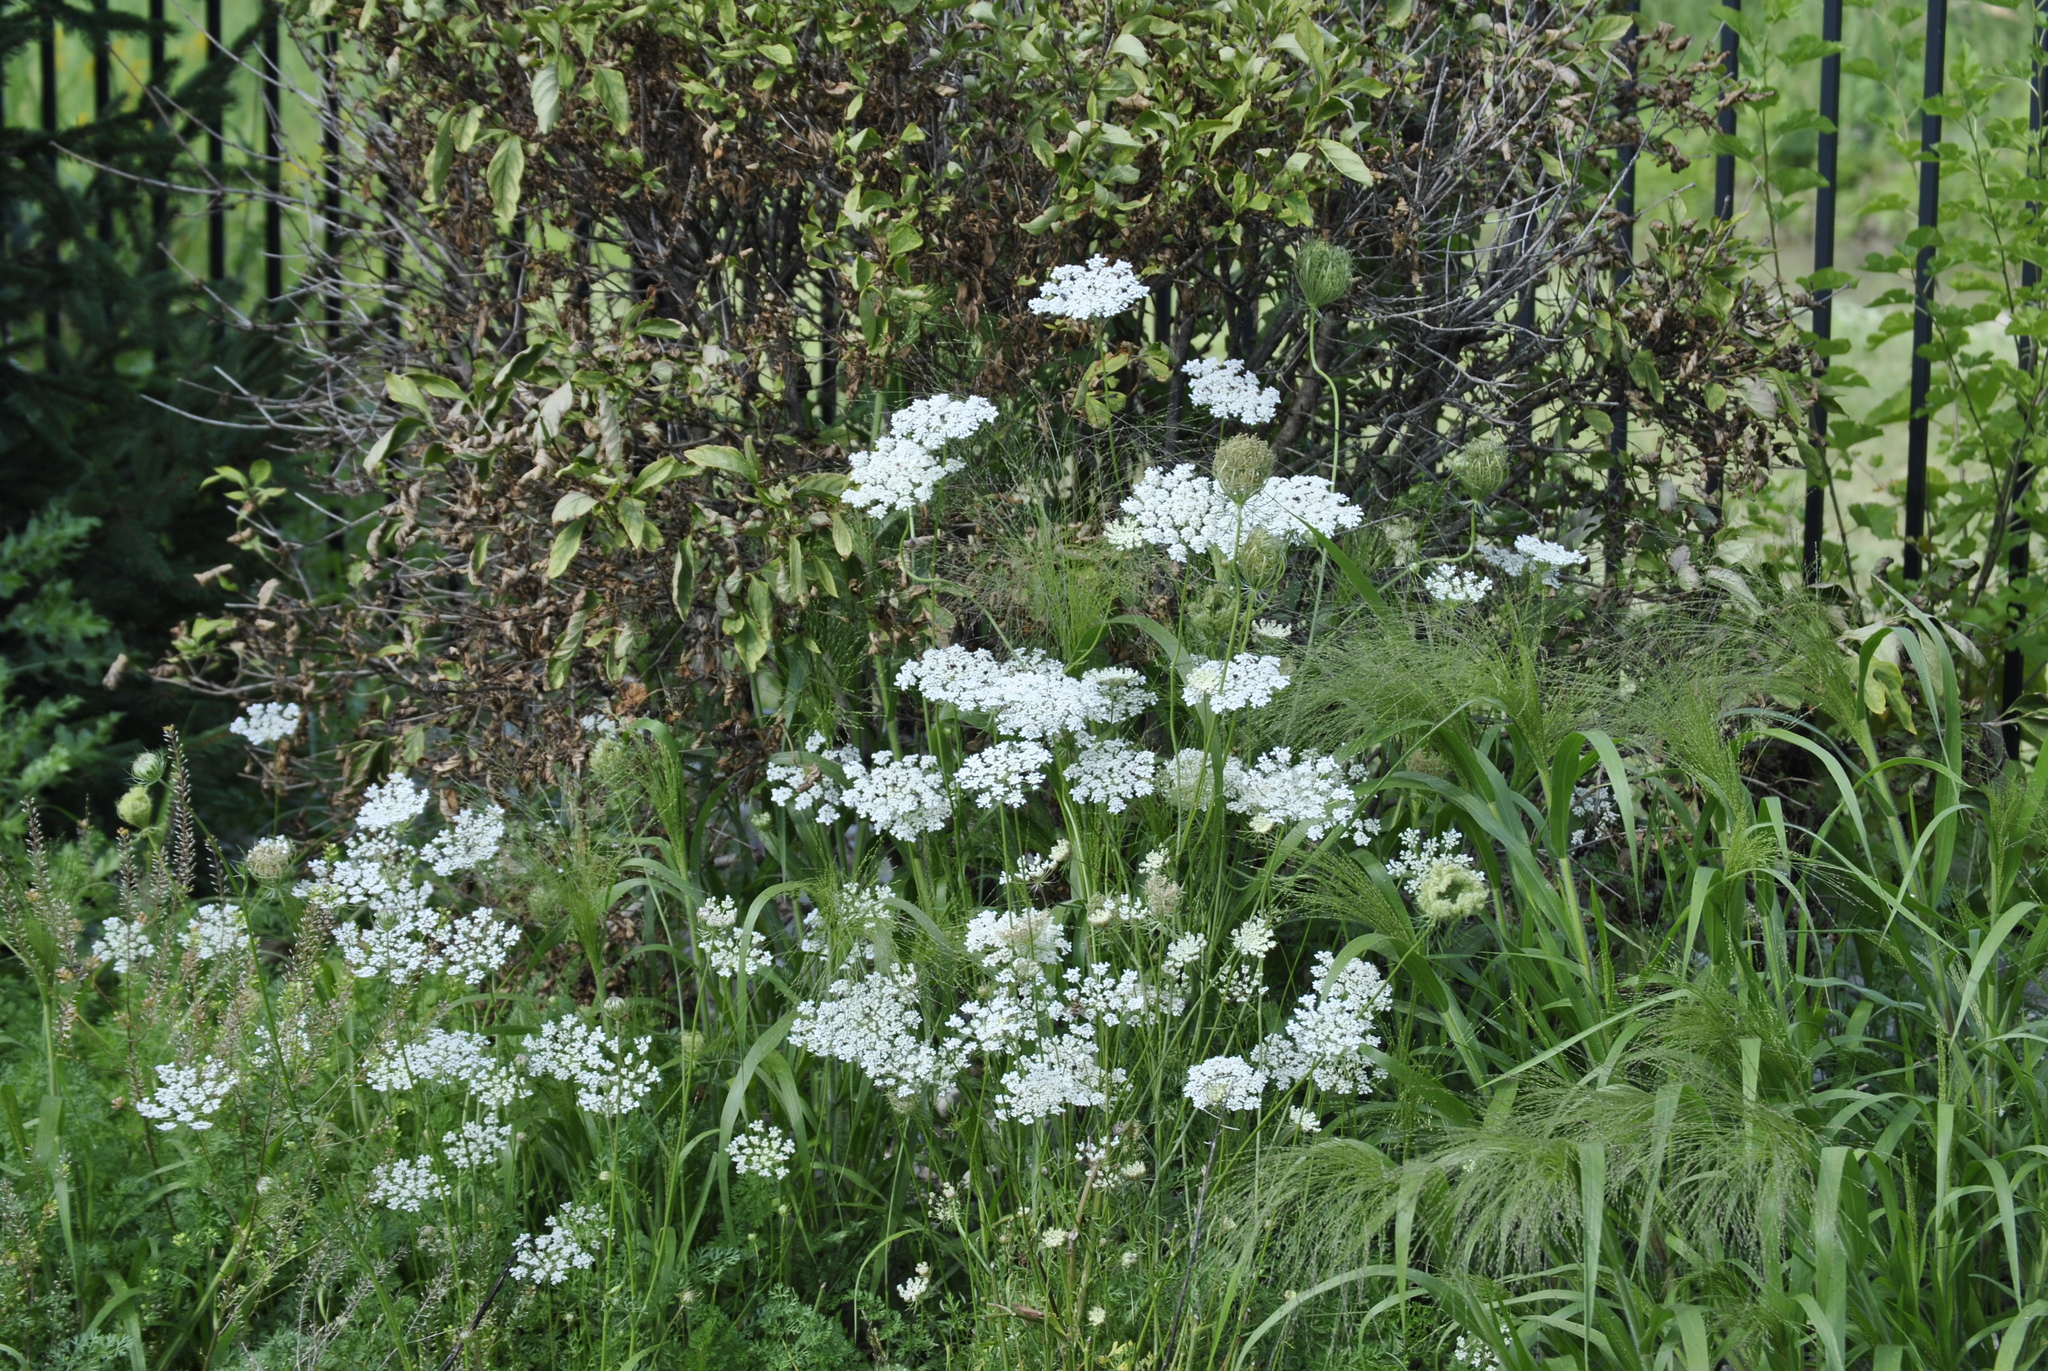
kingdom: Plantae
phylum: Tracheophyta
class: Magnoliopsida
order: Apiales
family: Apiaceae
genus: Daucus
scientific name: Daucus carota
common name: Wild carrot
